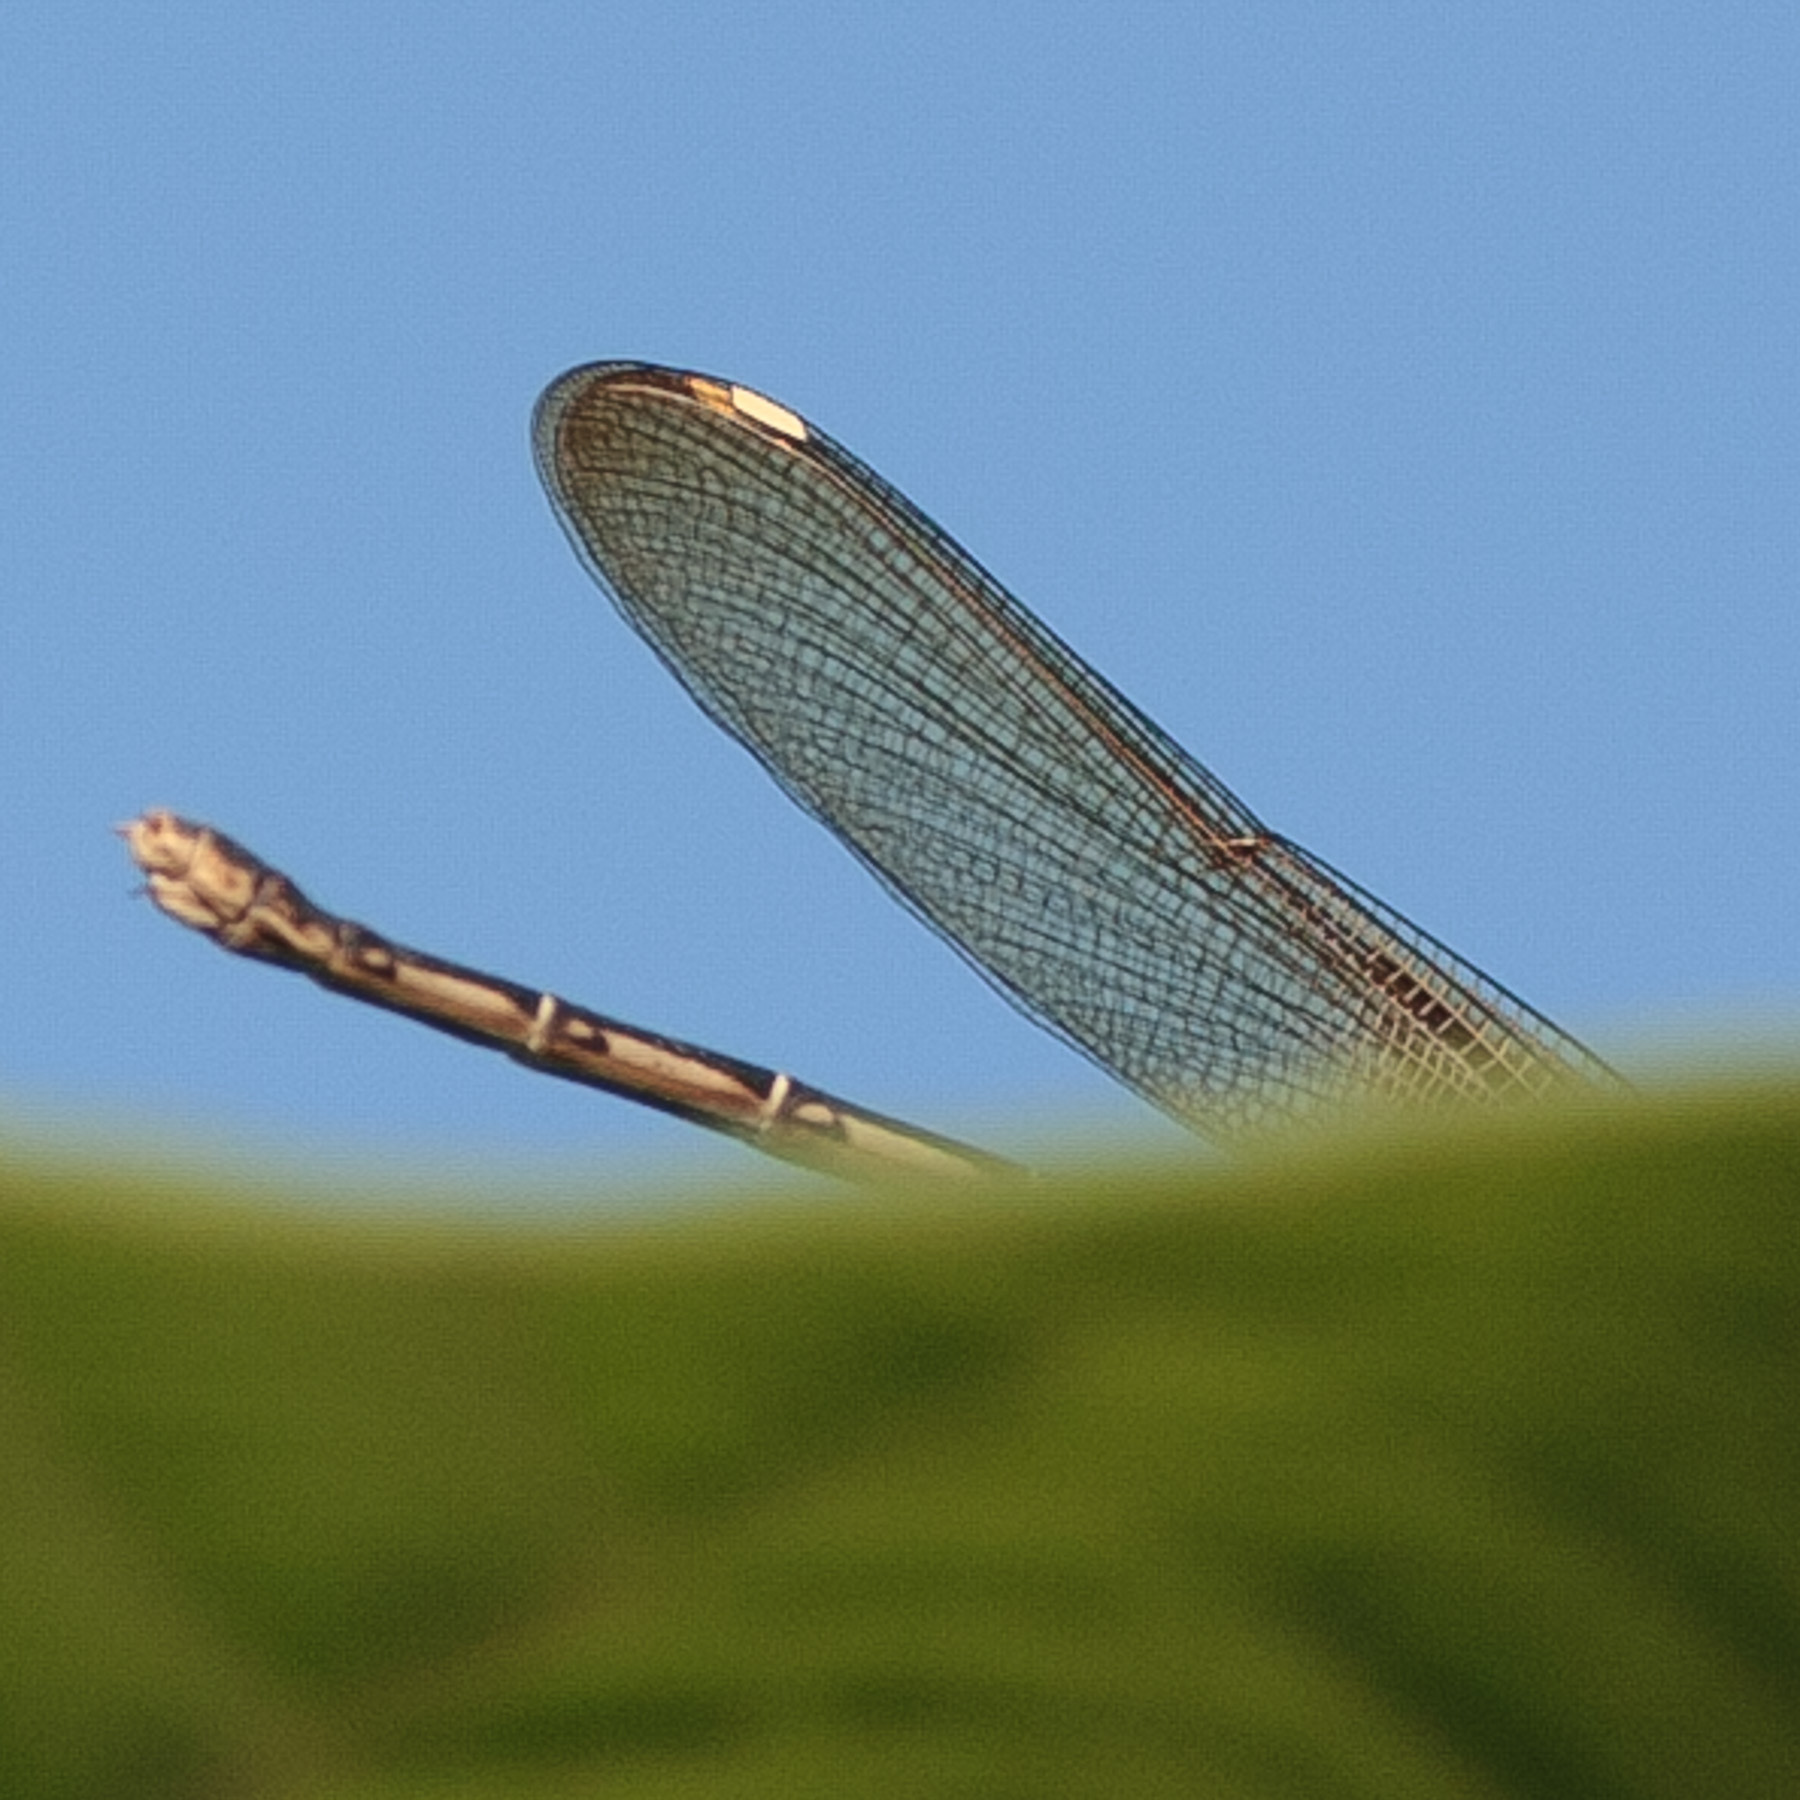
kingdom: Animalia
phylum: Arthropoda
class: Insecta
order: Odonata
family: Calopterygidae
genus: Hetaerina
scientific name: Hetaerina americana
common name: American rubyspot
